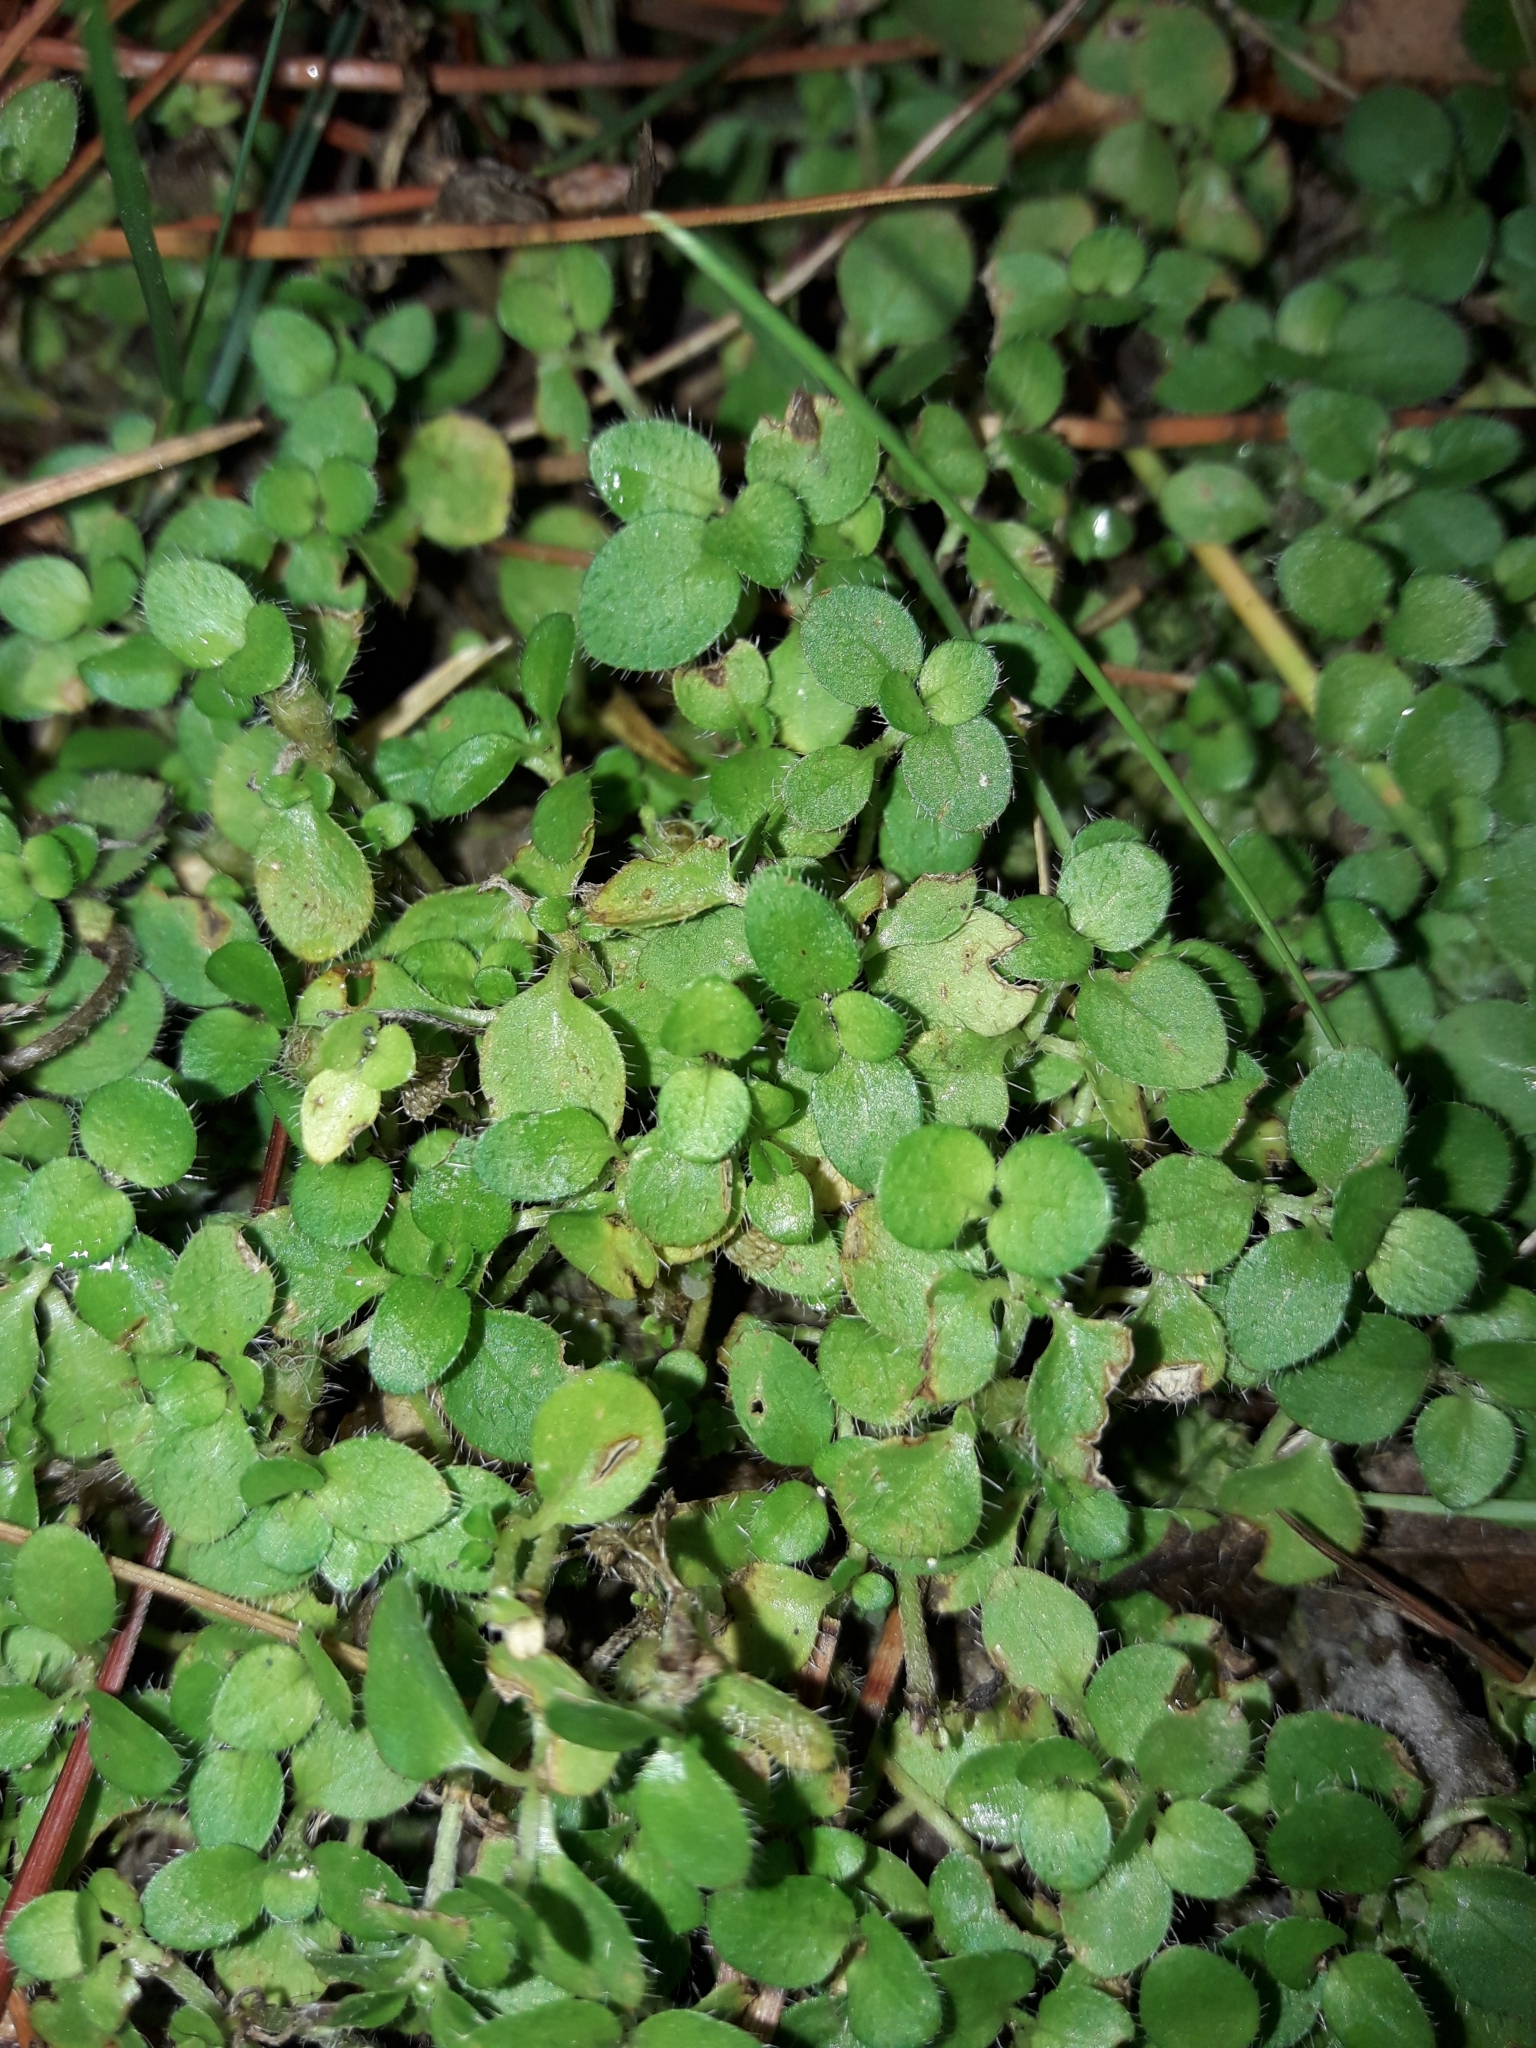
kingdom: Plantae
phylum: Tracheophyta
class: Magnoliopsida
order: Gentianales
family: Rubiaceae
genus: Leptostigma
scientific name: Leptostigma setulosum
